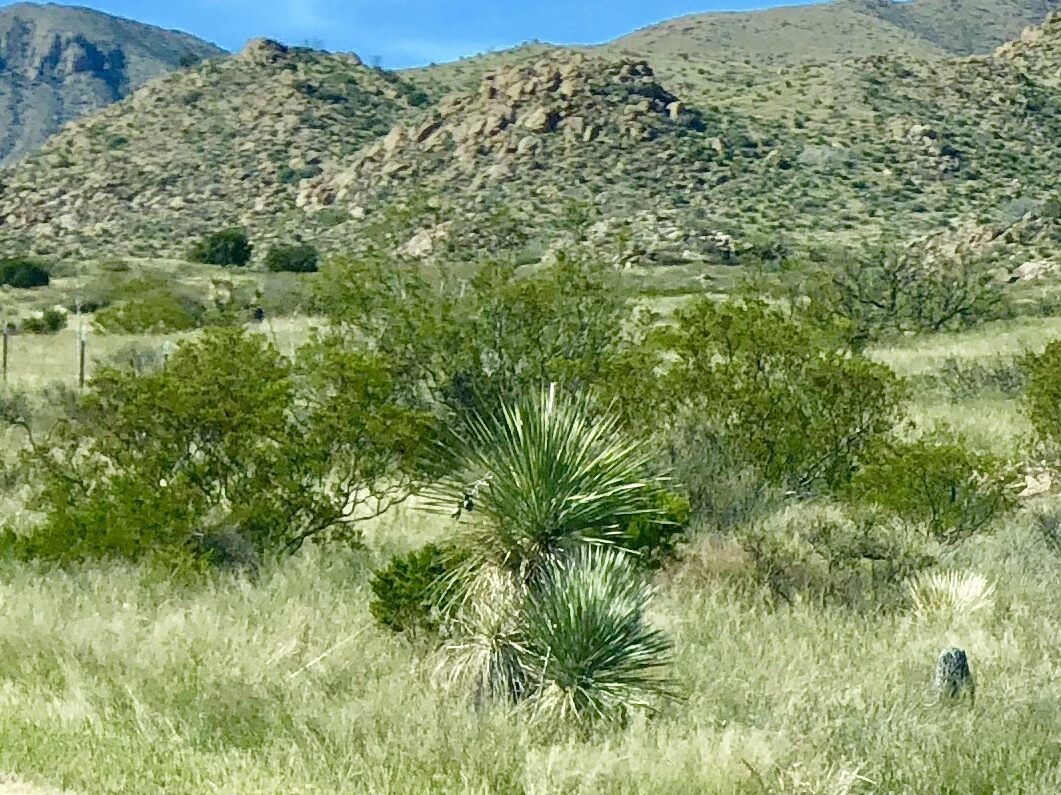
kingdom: Plantae
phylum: Tracheophyta
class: Liliopsida
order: Asparagales
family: Asparagaceae
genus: Yucca
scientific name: Yucca elata
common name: Palmella
